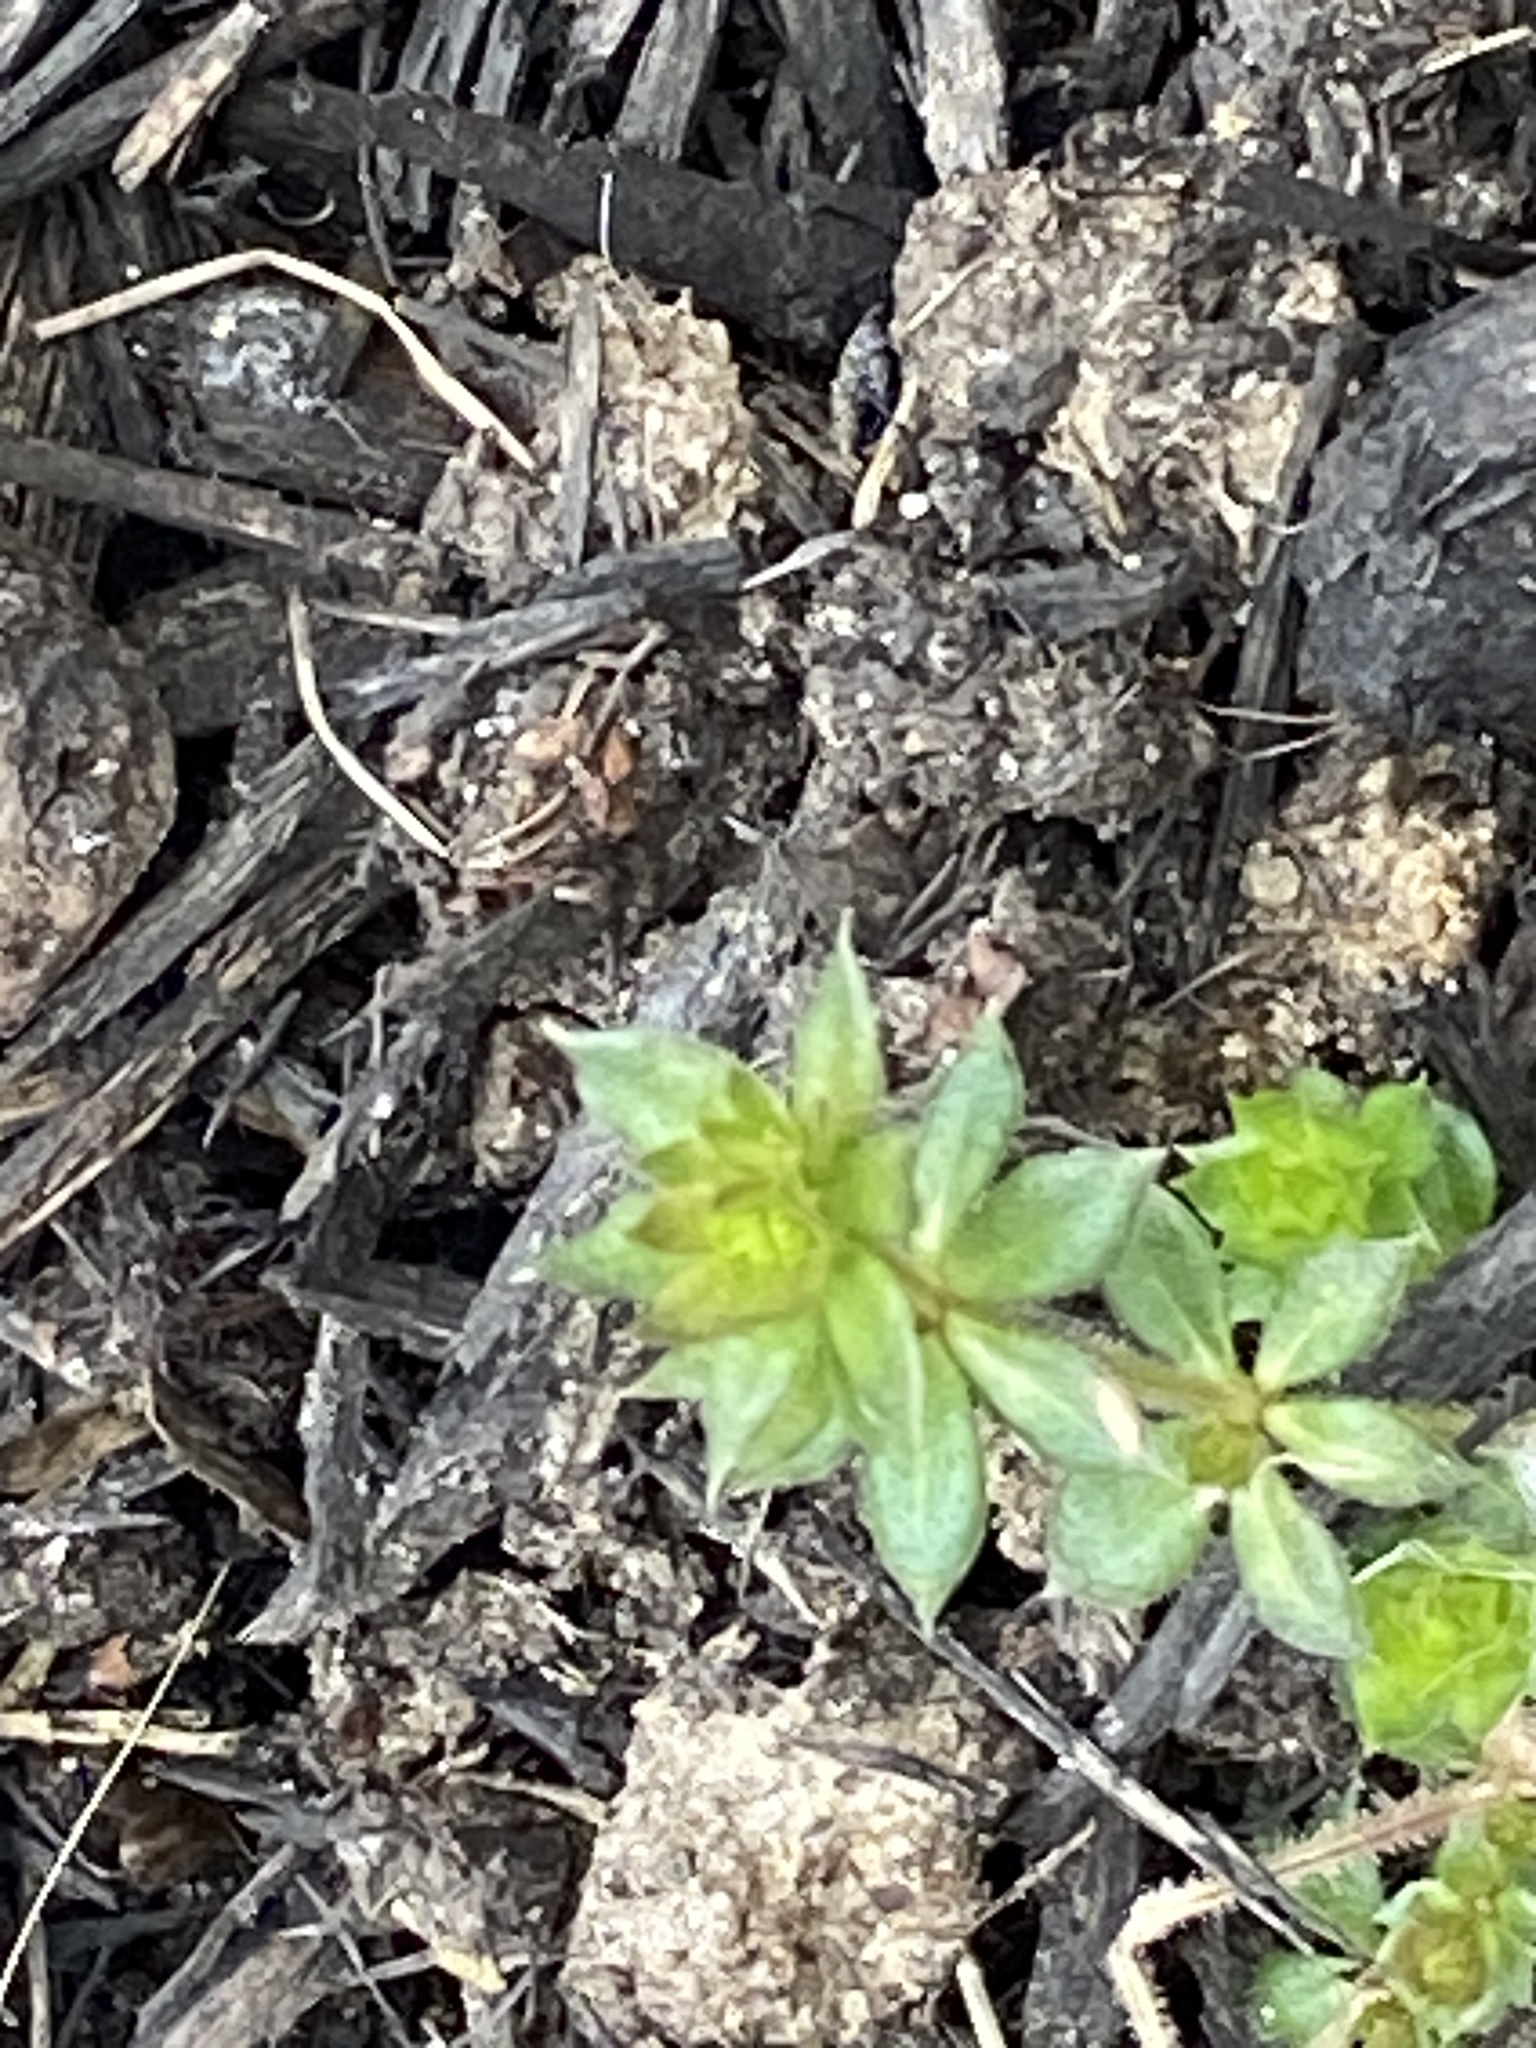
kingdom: Plantae
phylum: Tracheophyta
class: Magnoliopsida
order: Gentianales
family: Rubiaceae
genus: Sherardia
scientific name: Sherardia arvensis
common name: Field madder
